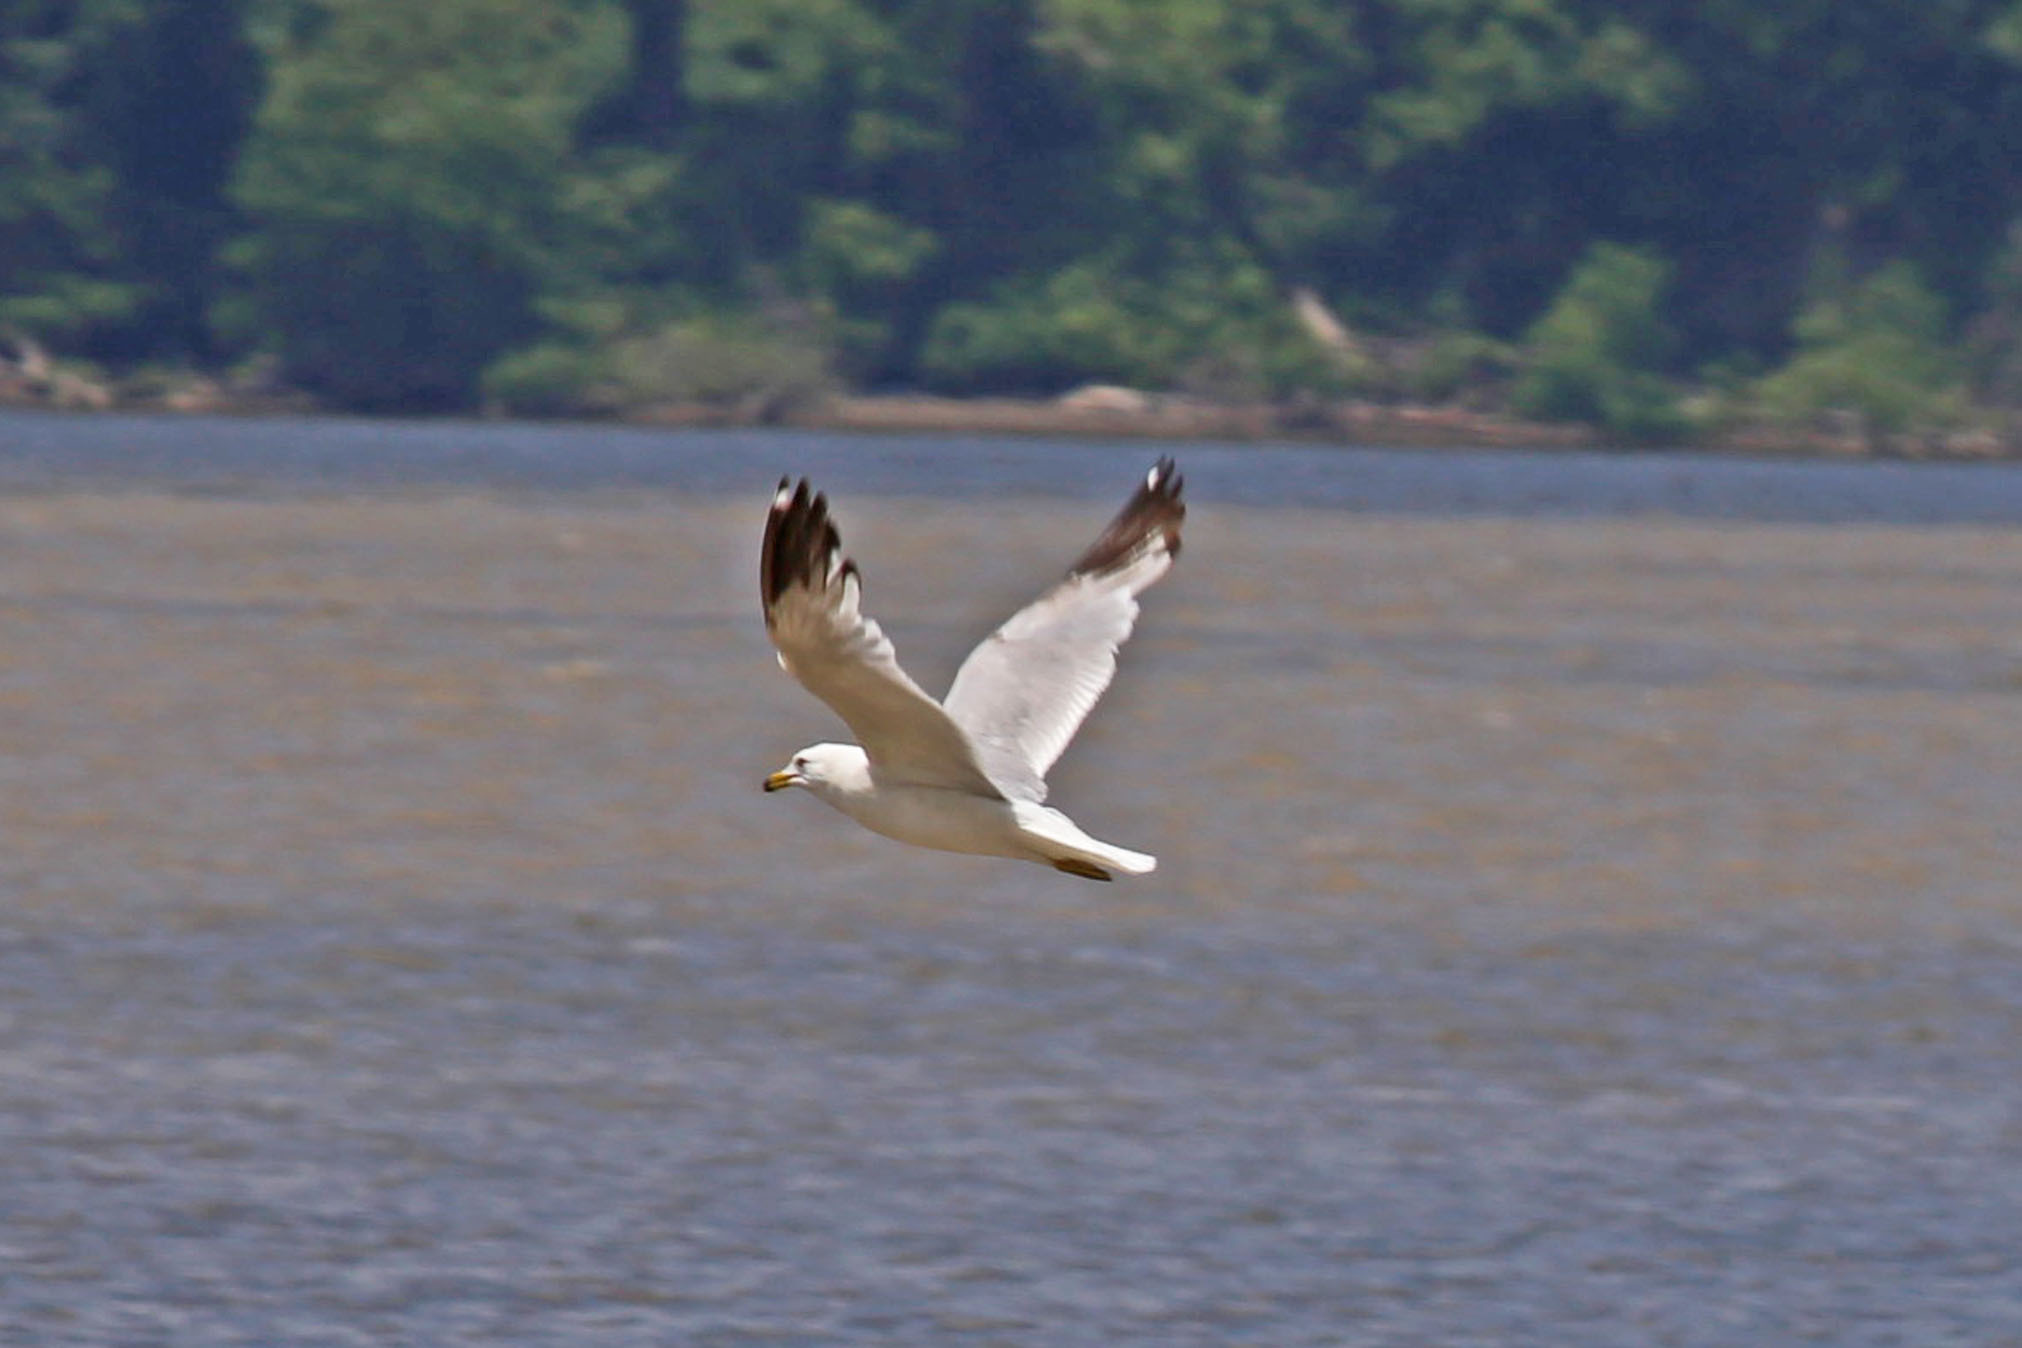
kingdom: Animalia
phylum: Chordata
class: Aves
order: Charadriiformes
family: Laridae
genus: Larus
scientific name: Larus delawarensis
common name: Ring-billed gull
